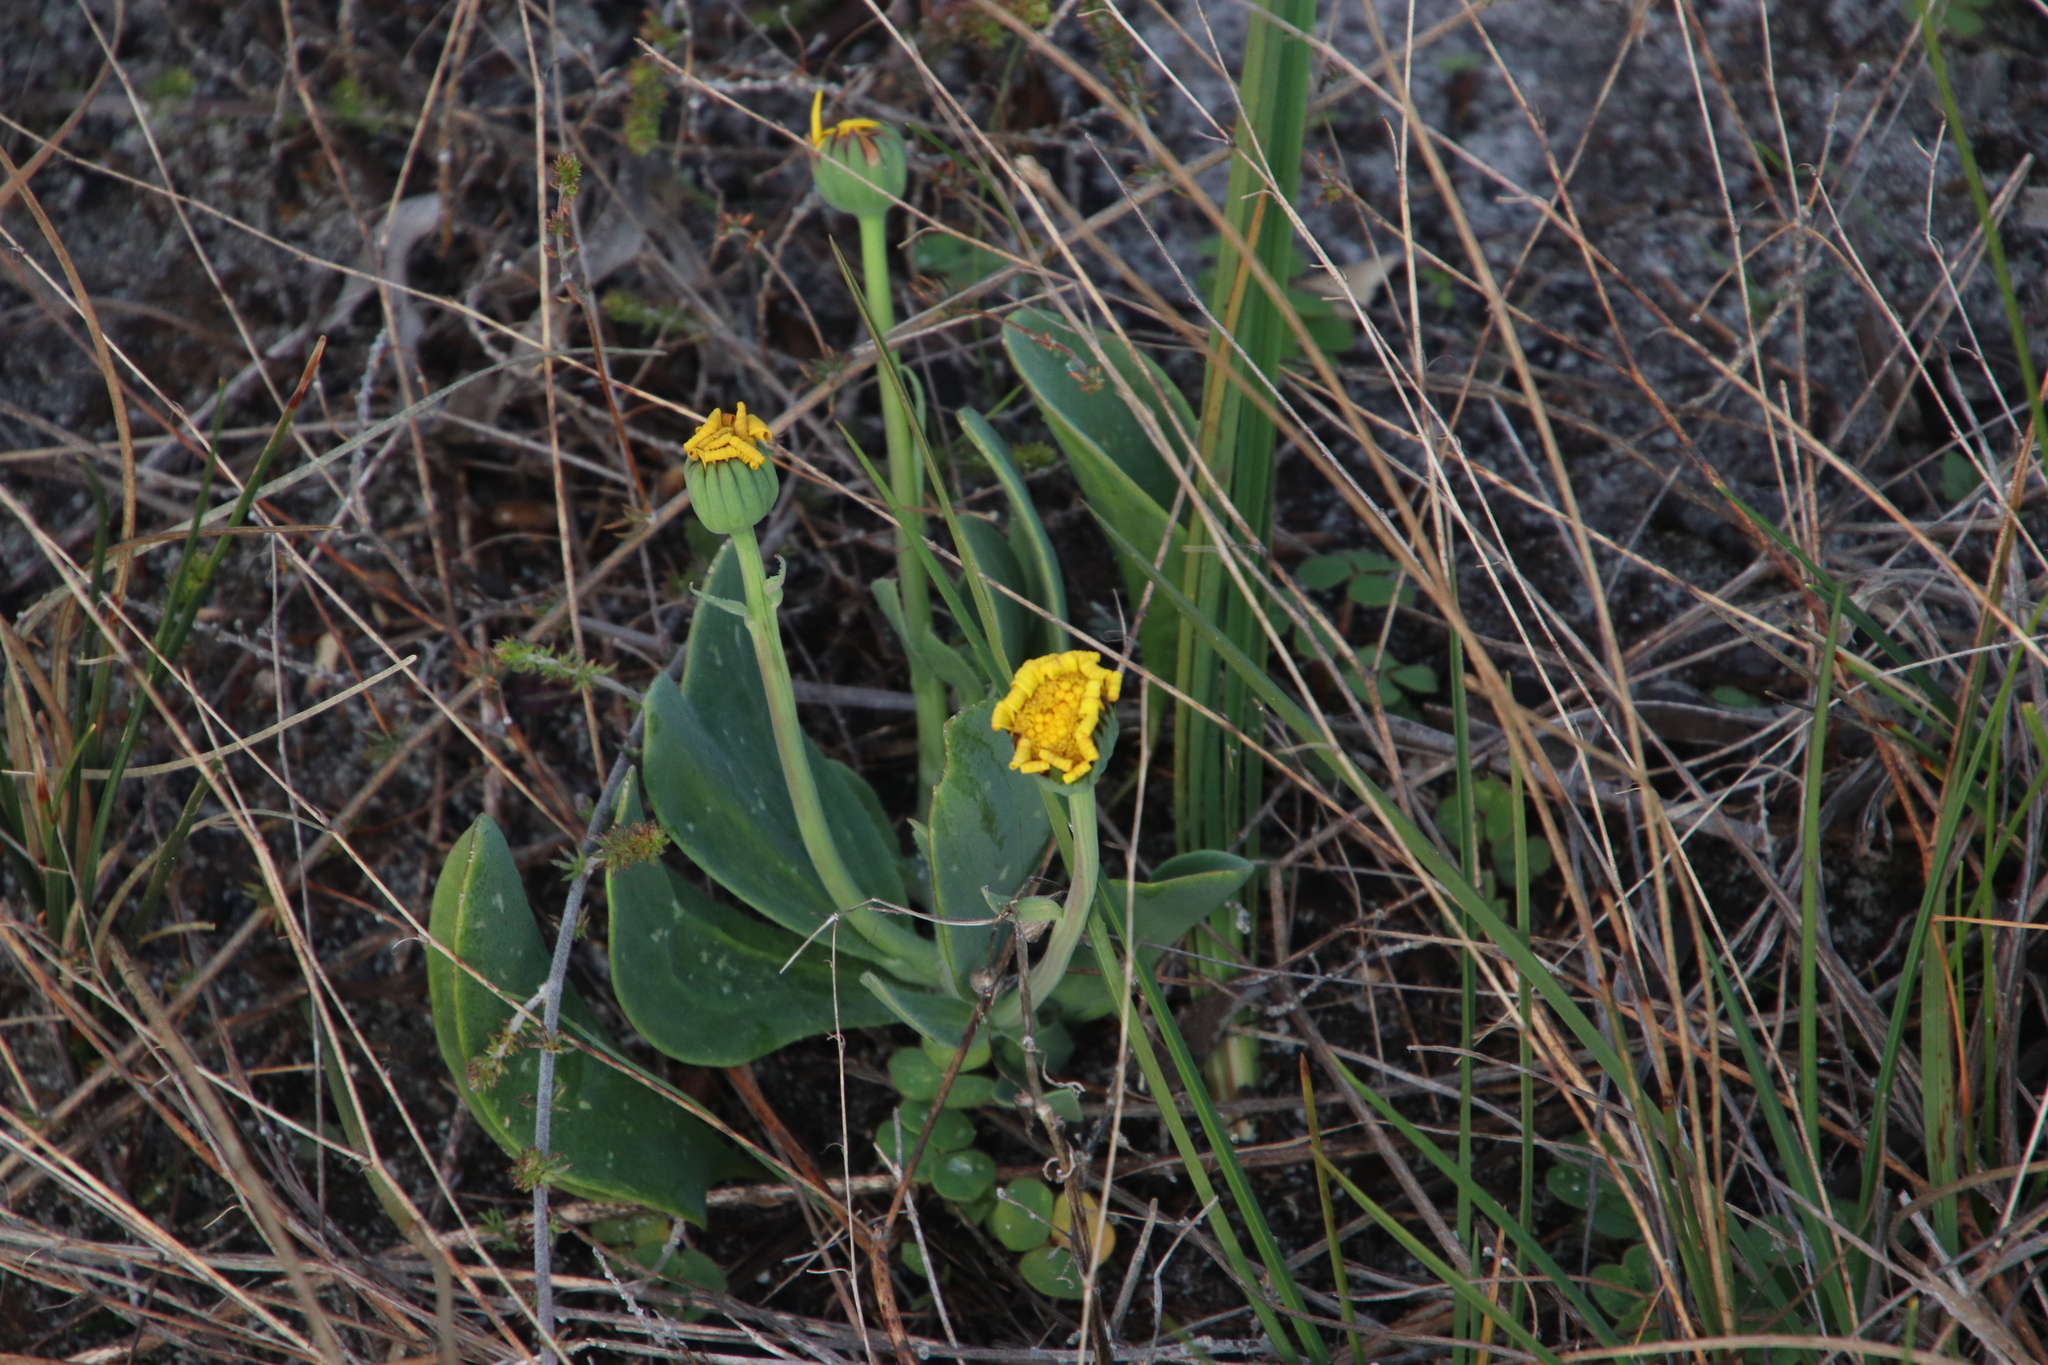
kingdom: Plantae
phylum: Tracheophyta
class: Magnoliopsida
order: Asterales
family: Asteraceae
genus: Othonna
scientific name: Othonna bulbosa
